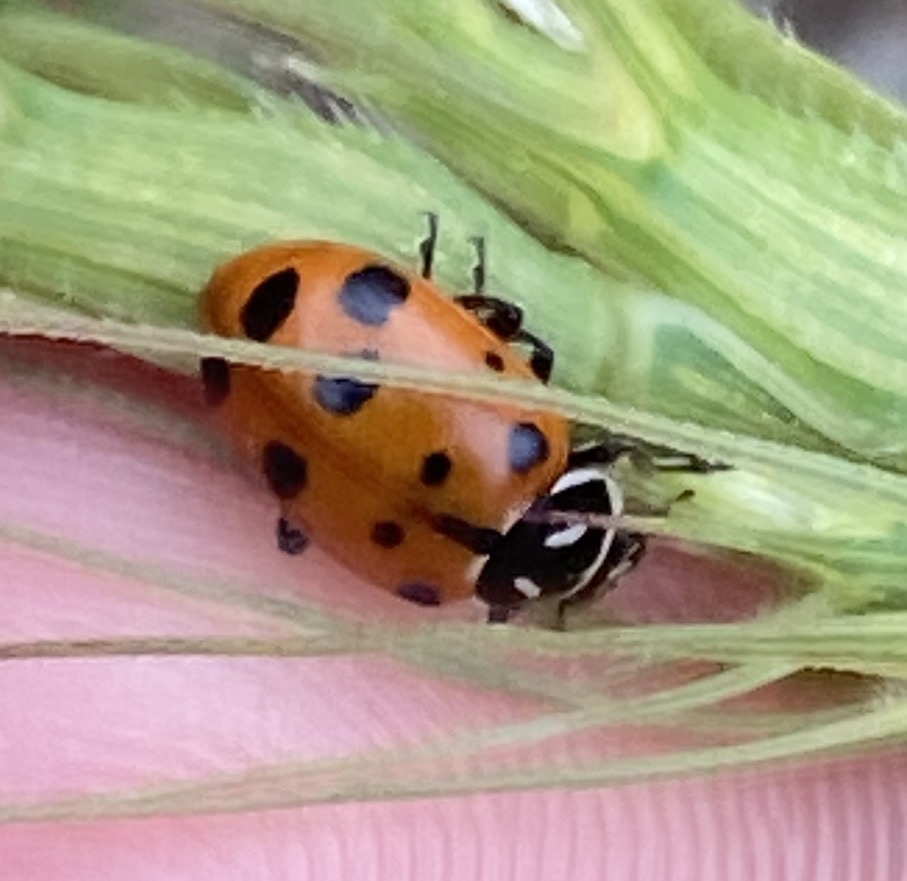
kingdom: Animalia
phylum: Arthropoda
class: Insecta
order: Coleoptera
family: Coccinellidae
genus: Hippodamia
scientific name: Hippodamia convergens
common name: Convergent lady beetle
